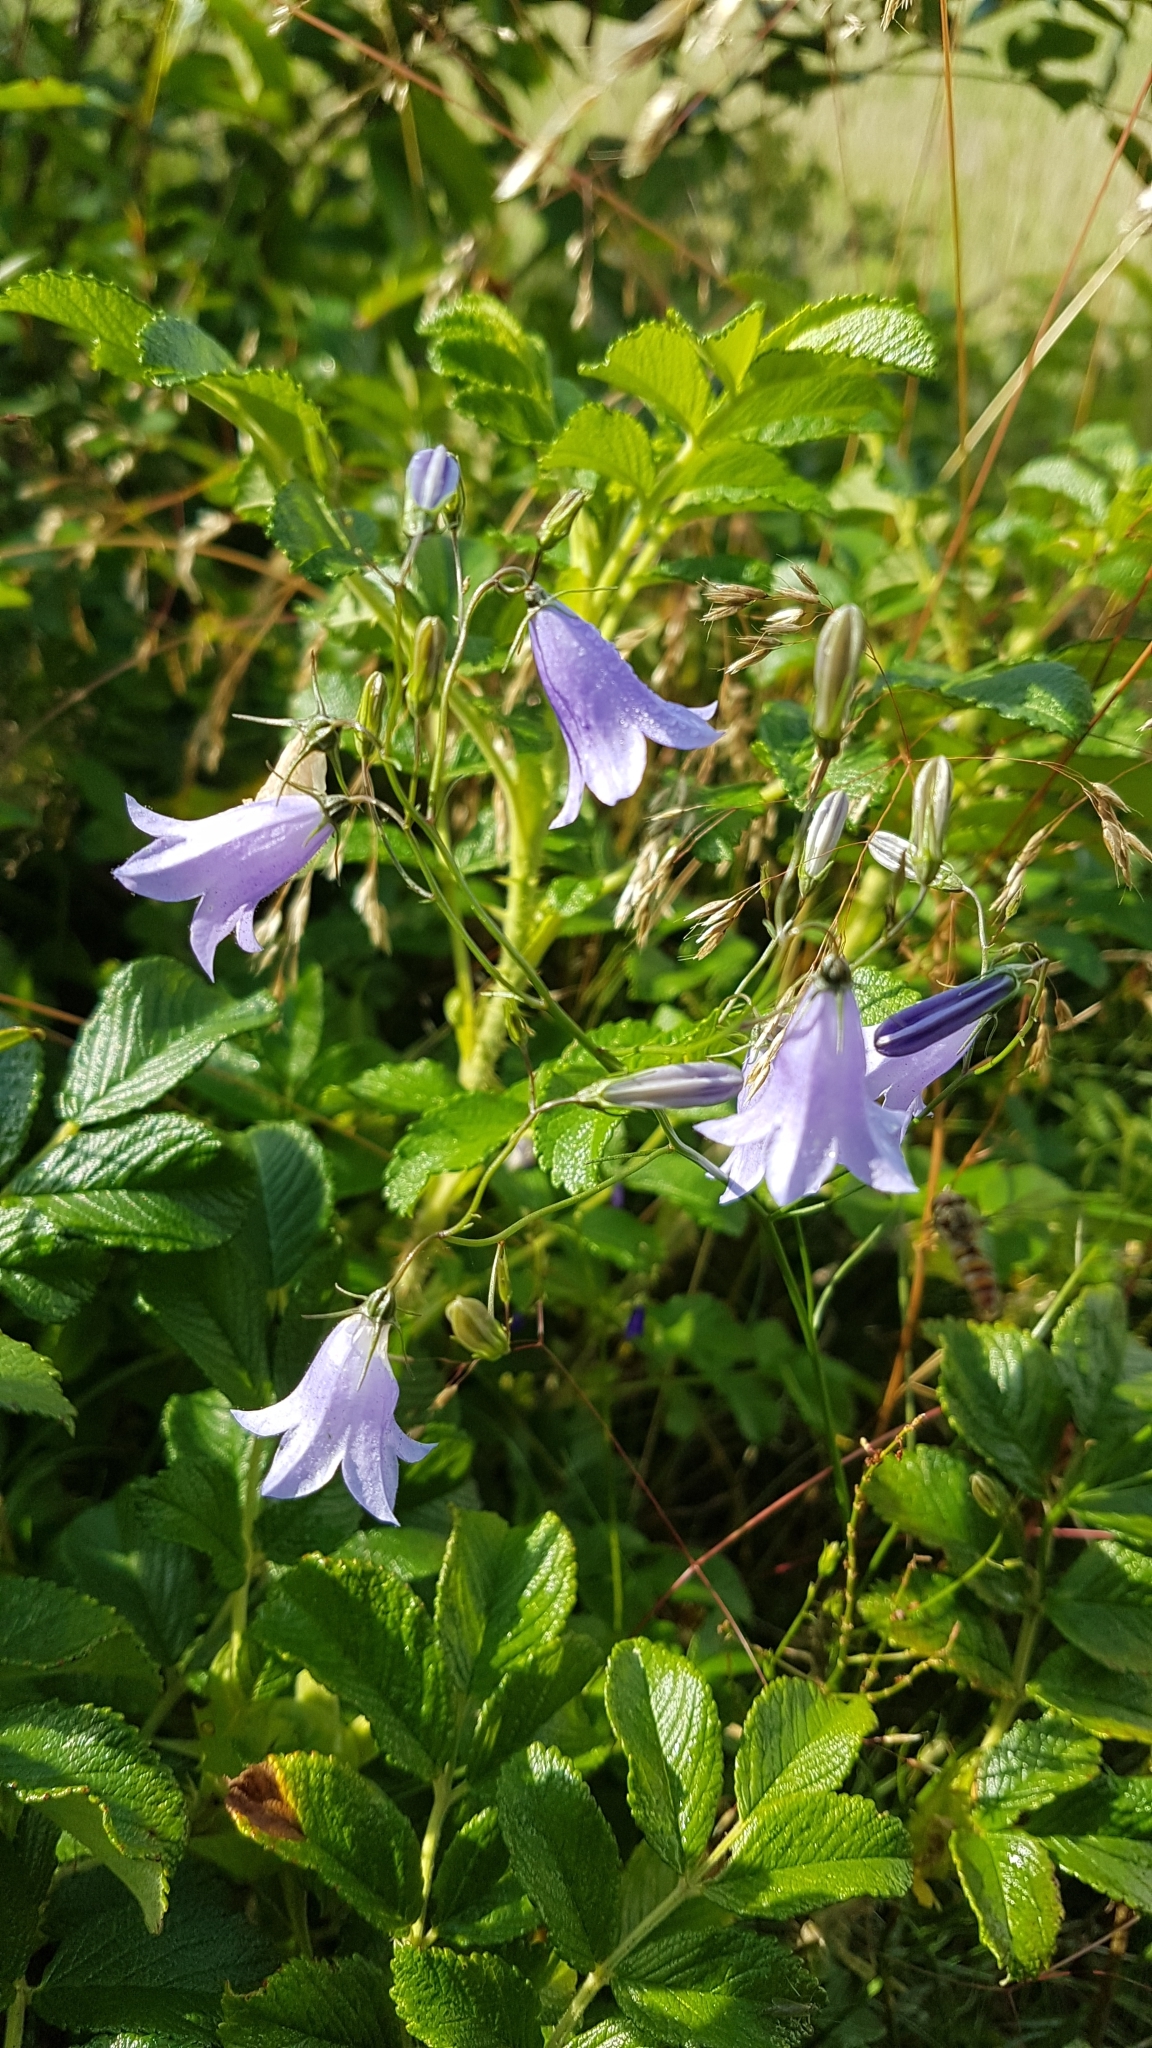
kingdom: Plantae
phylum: Tracheophyta
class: Magnoliopsida
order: Asterales
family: Campanulaceae
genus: Campanula
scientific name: Campanula rotundifolia
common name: Harebell
